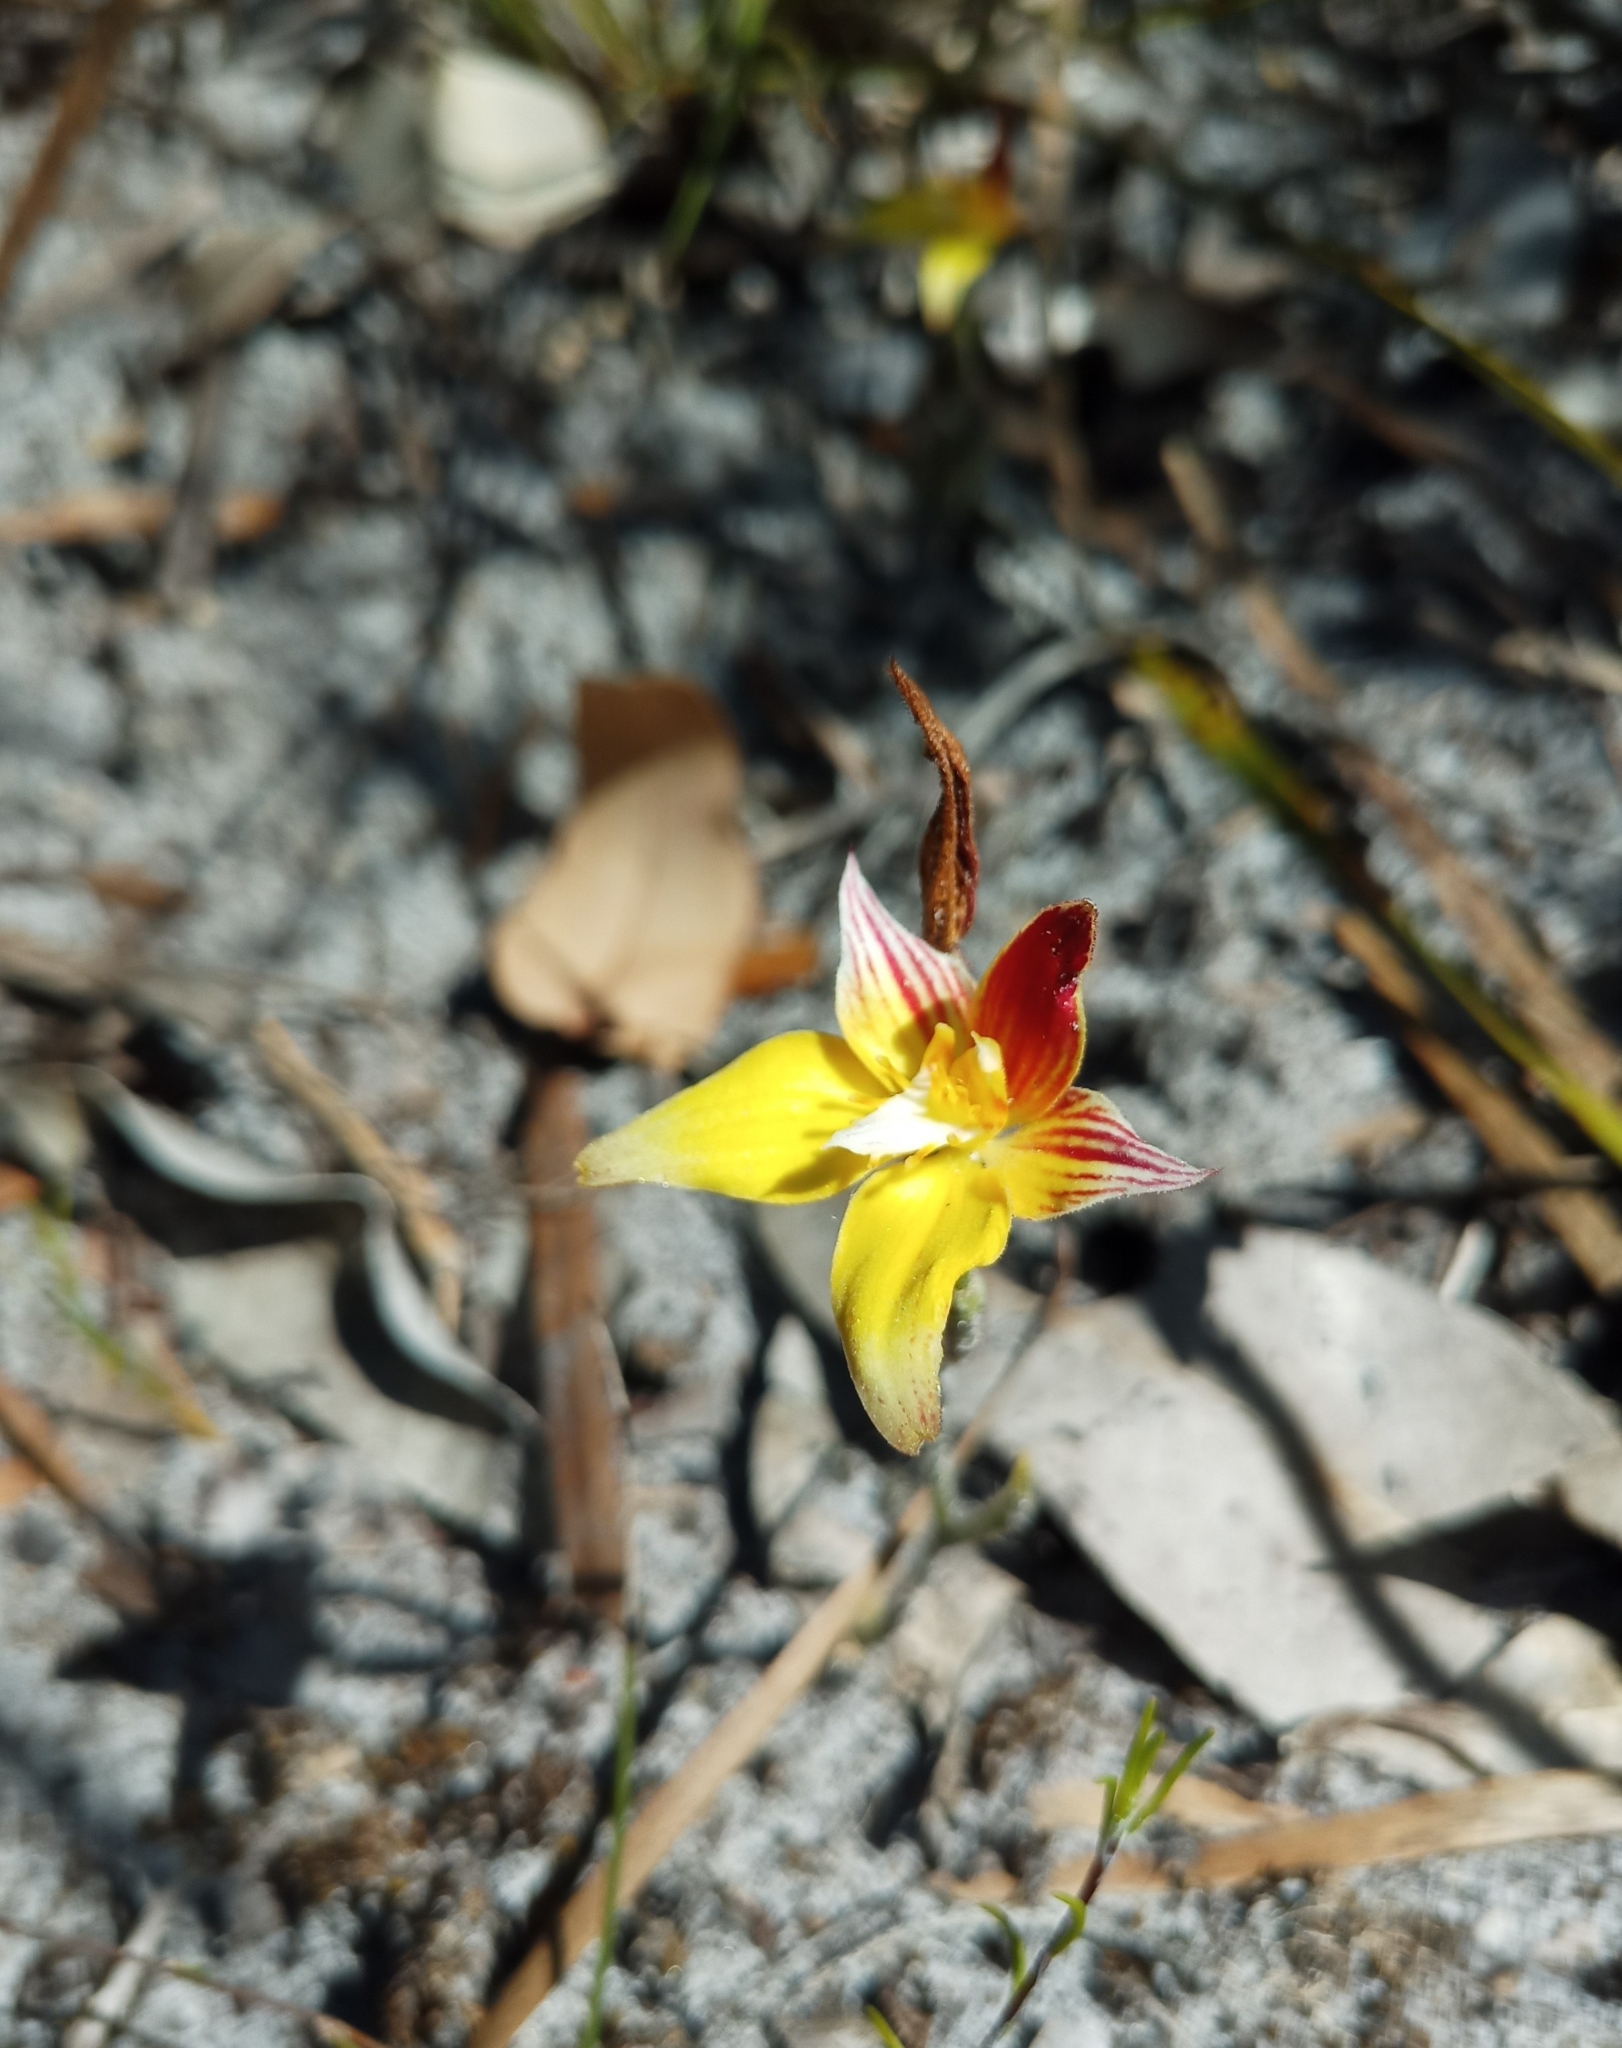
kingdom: Plantae
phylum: Tracheophyta
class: Liliopsida
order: Asparagales
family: Orchidaceae
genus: Caladenia
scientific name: Caladenia flava
